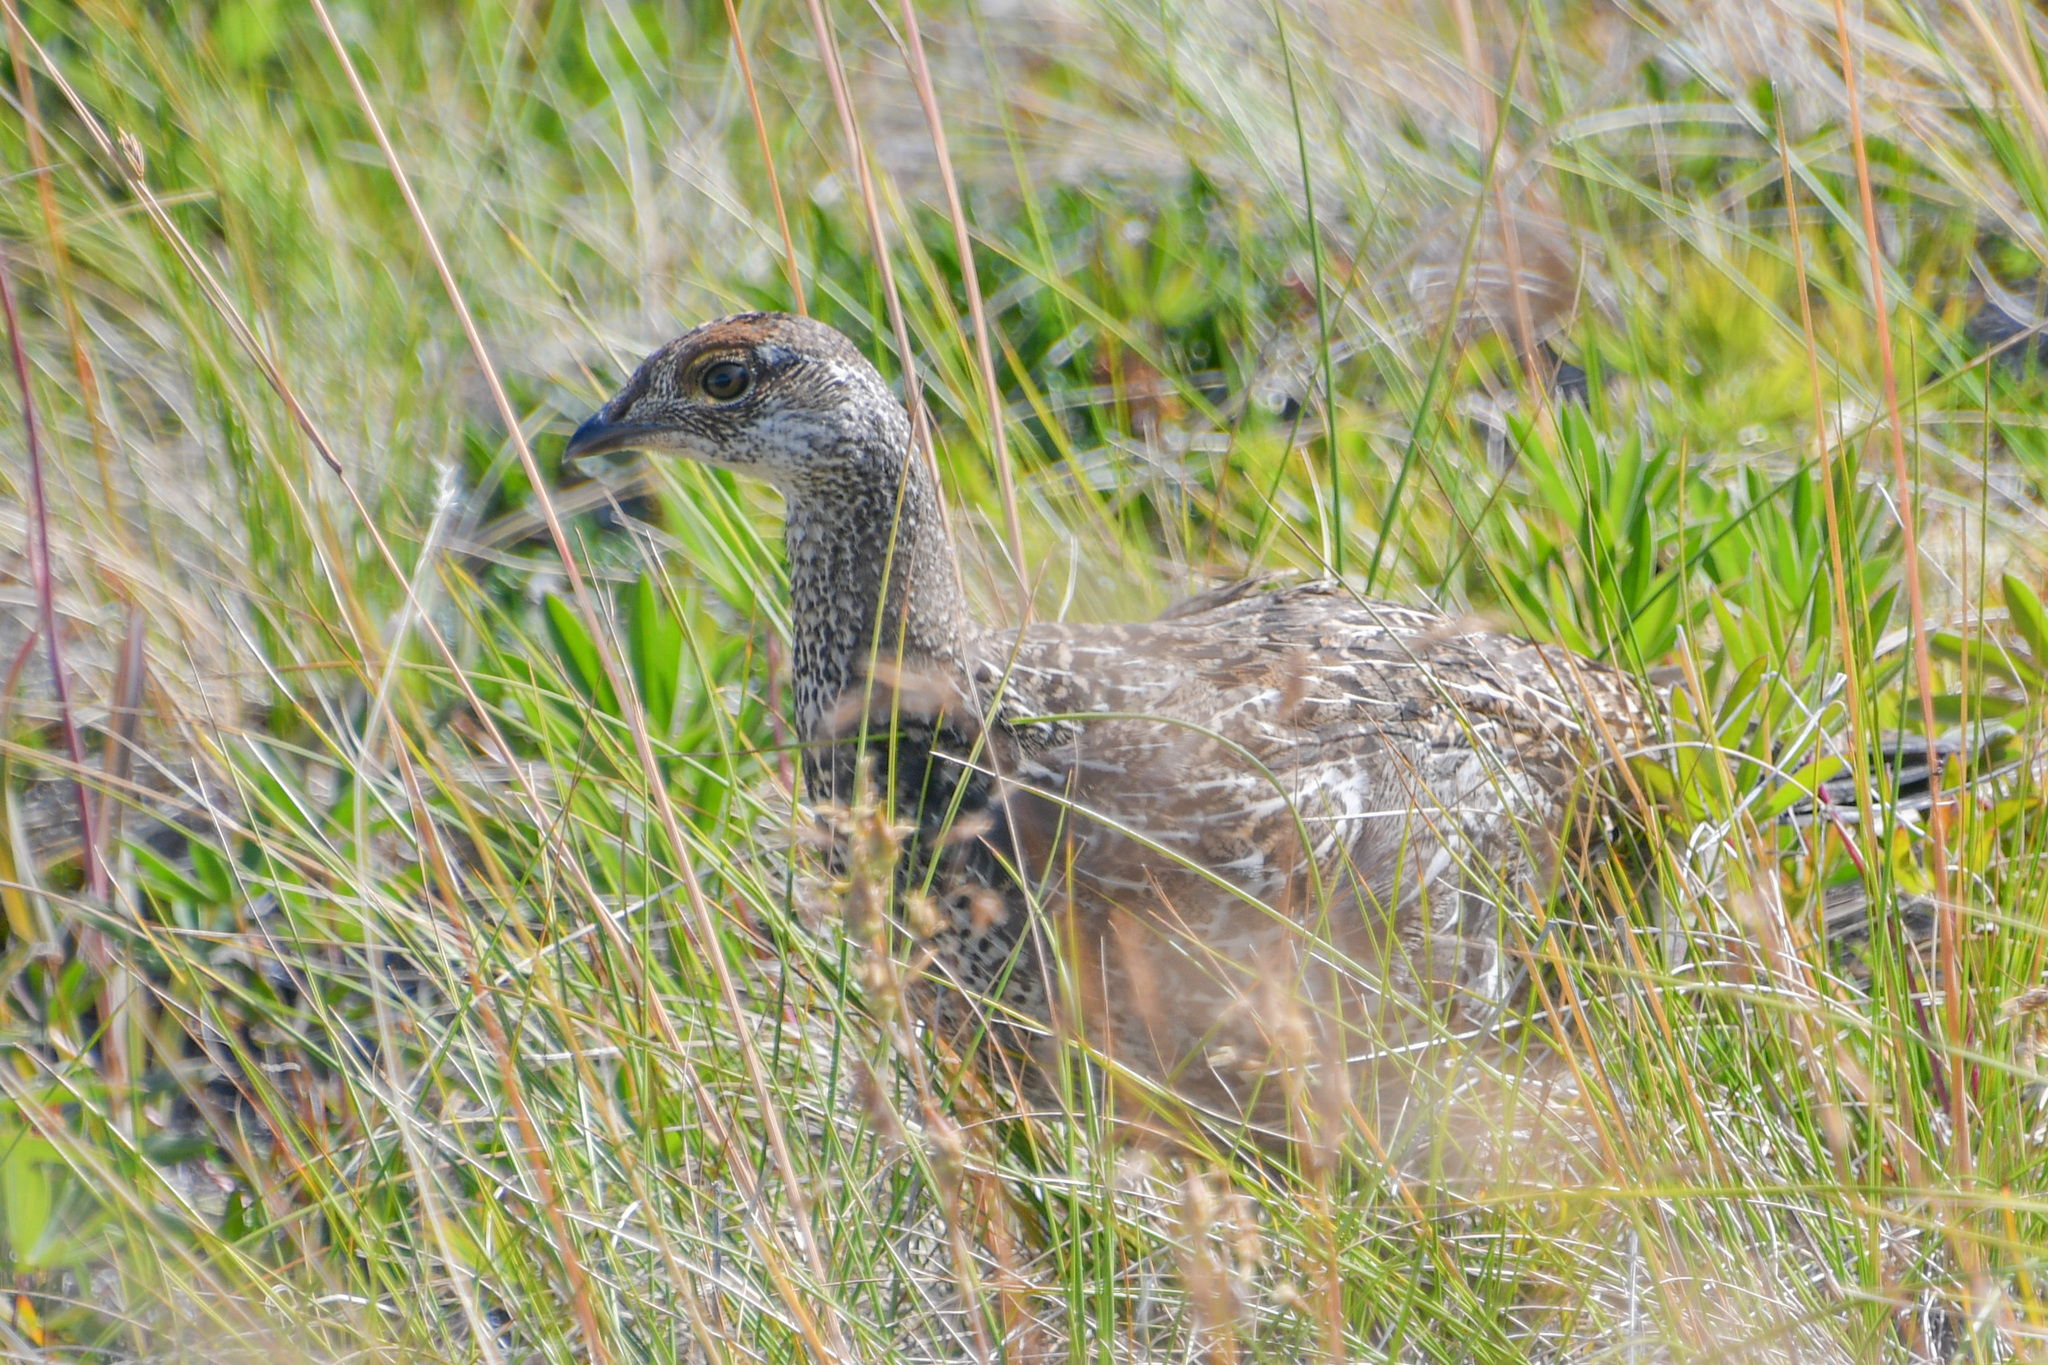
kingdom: Animalia
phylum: Chordata
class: Aves
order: Galliformes
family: Phasianidae
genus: Dendragapus
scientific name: Dendragapus obscurus
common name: Dusky grouse
